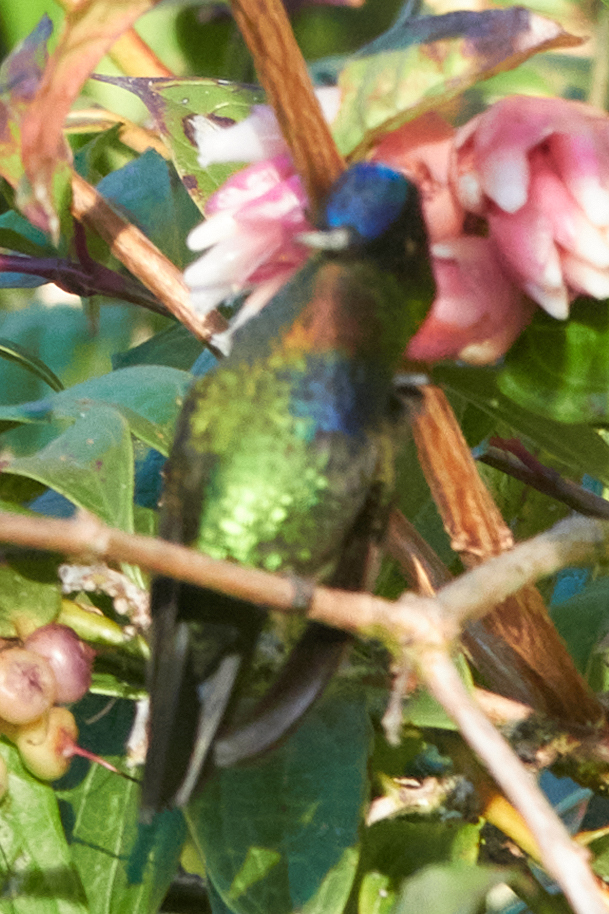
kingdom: Animalia
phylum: Chordata
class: Aves
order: Apodiformes
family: Trochilidae
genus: Panterpe
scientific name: Panterpe insignis
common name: Fiery-throated hummingbird
